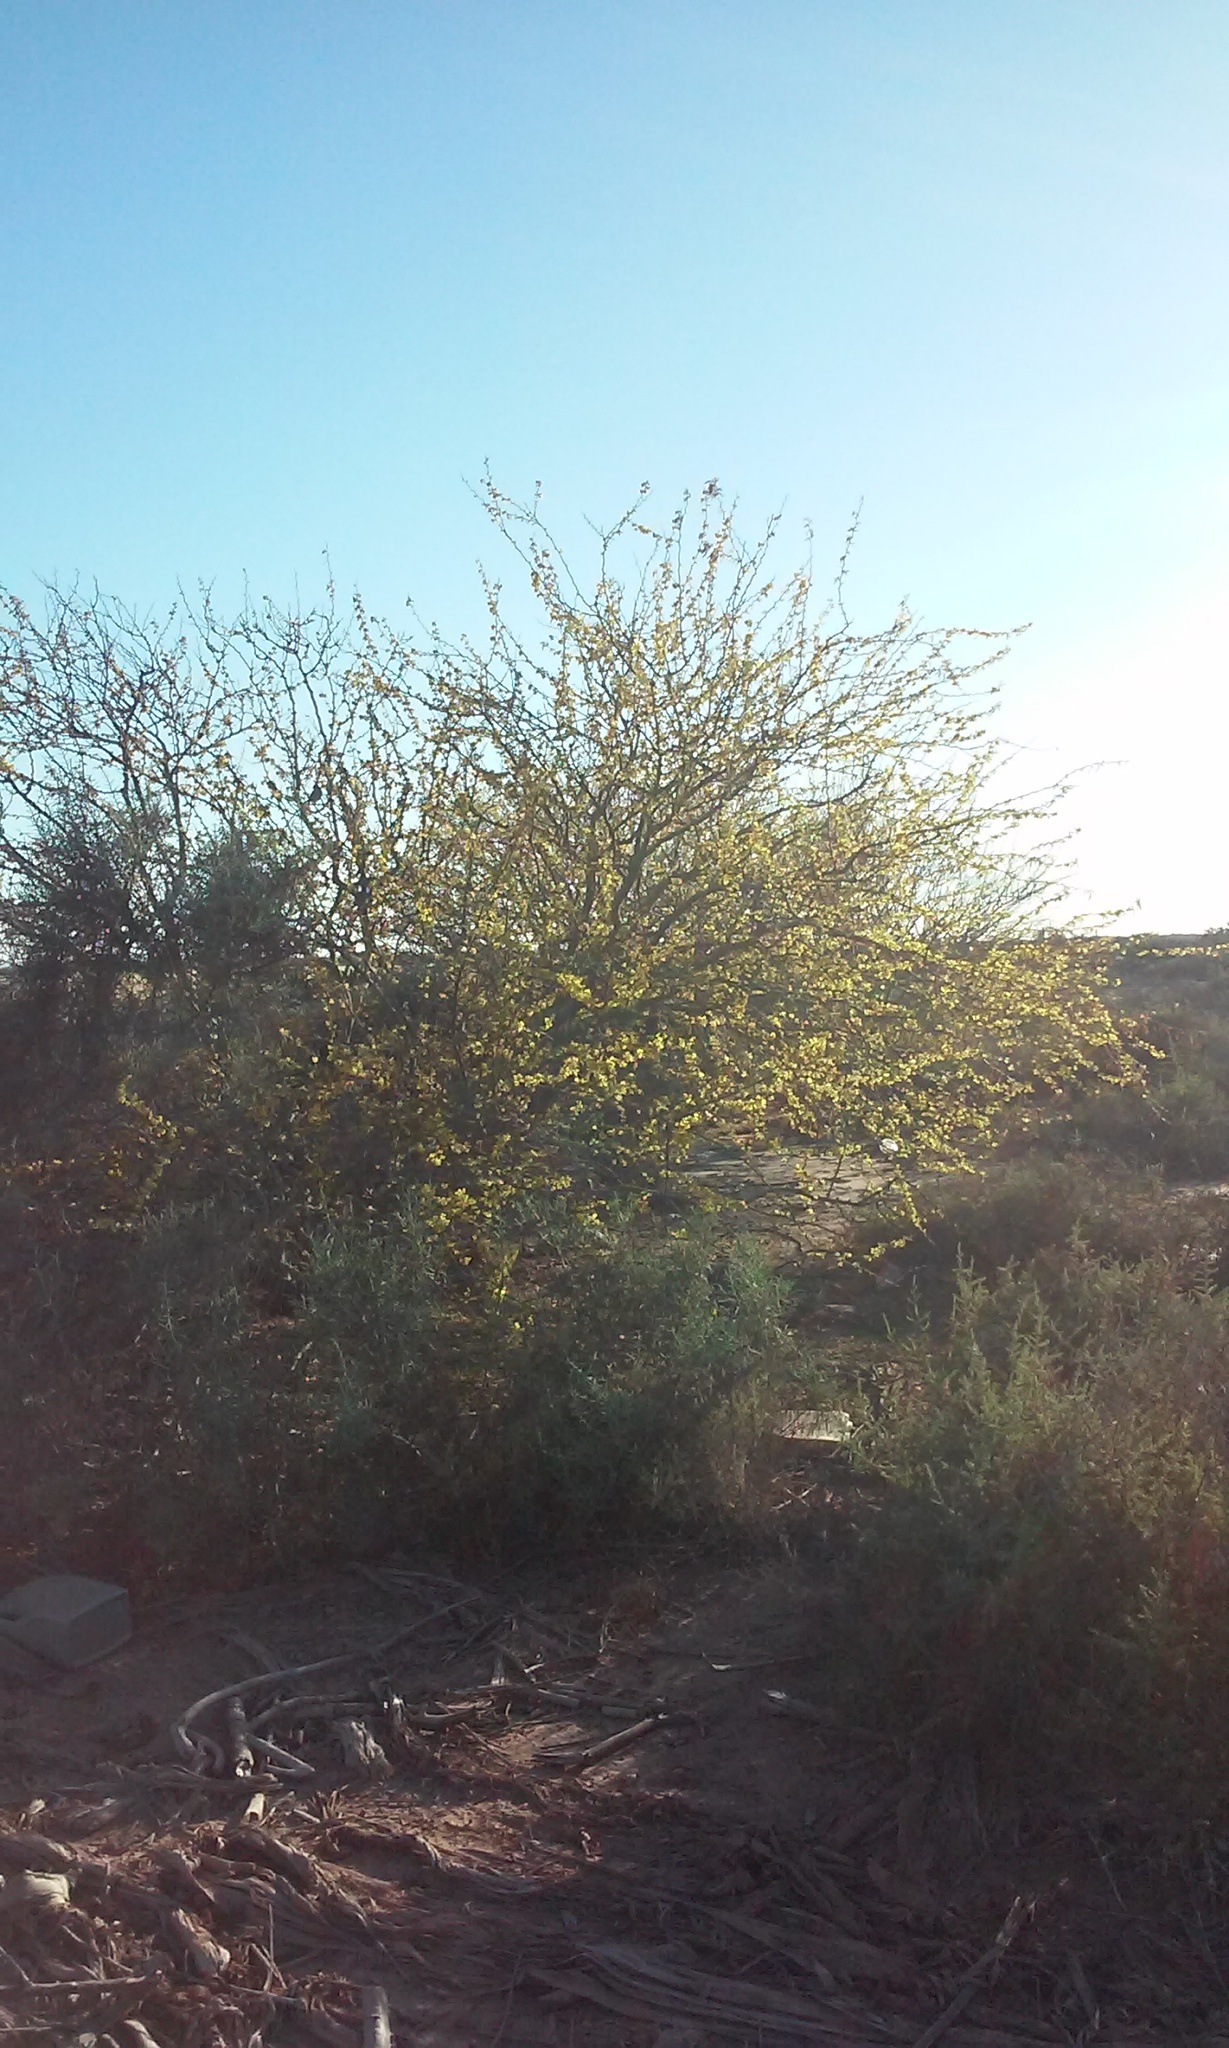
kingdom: Plantae
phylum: Tracheophyta
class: Magnoliopsida
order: Fabales
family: Fabaceae
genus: Parkinsonia
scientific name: Parkinsonia praecox
